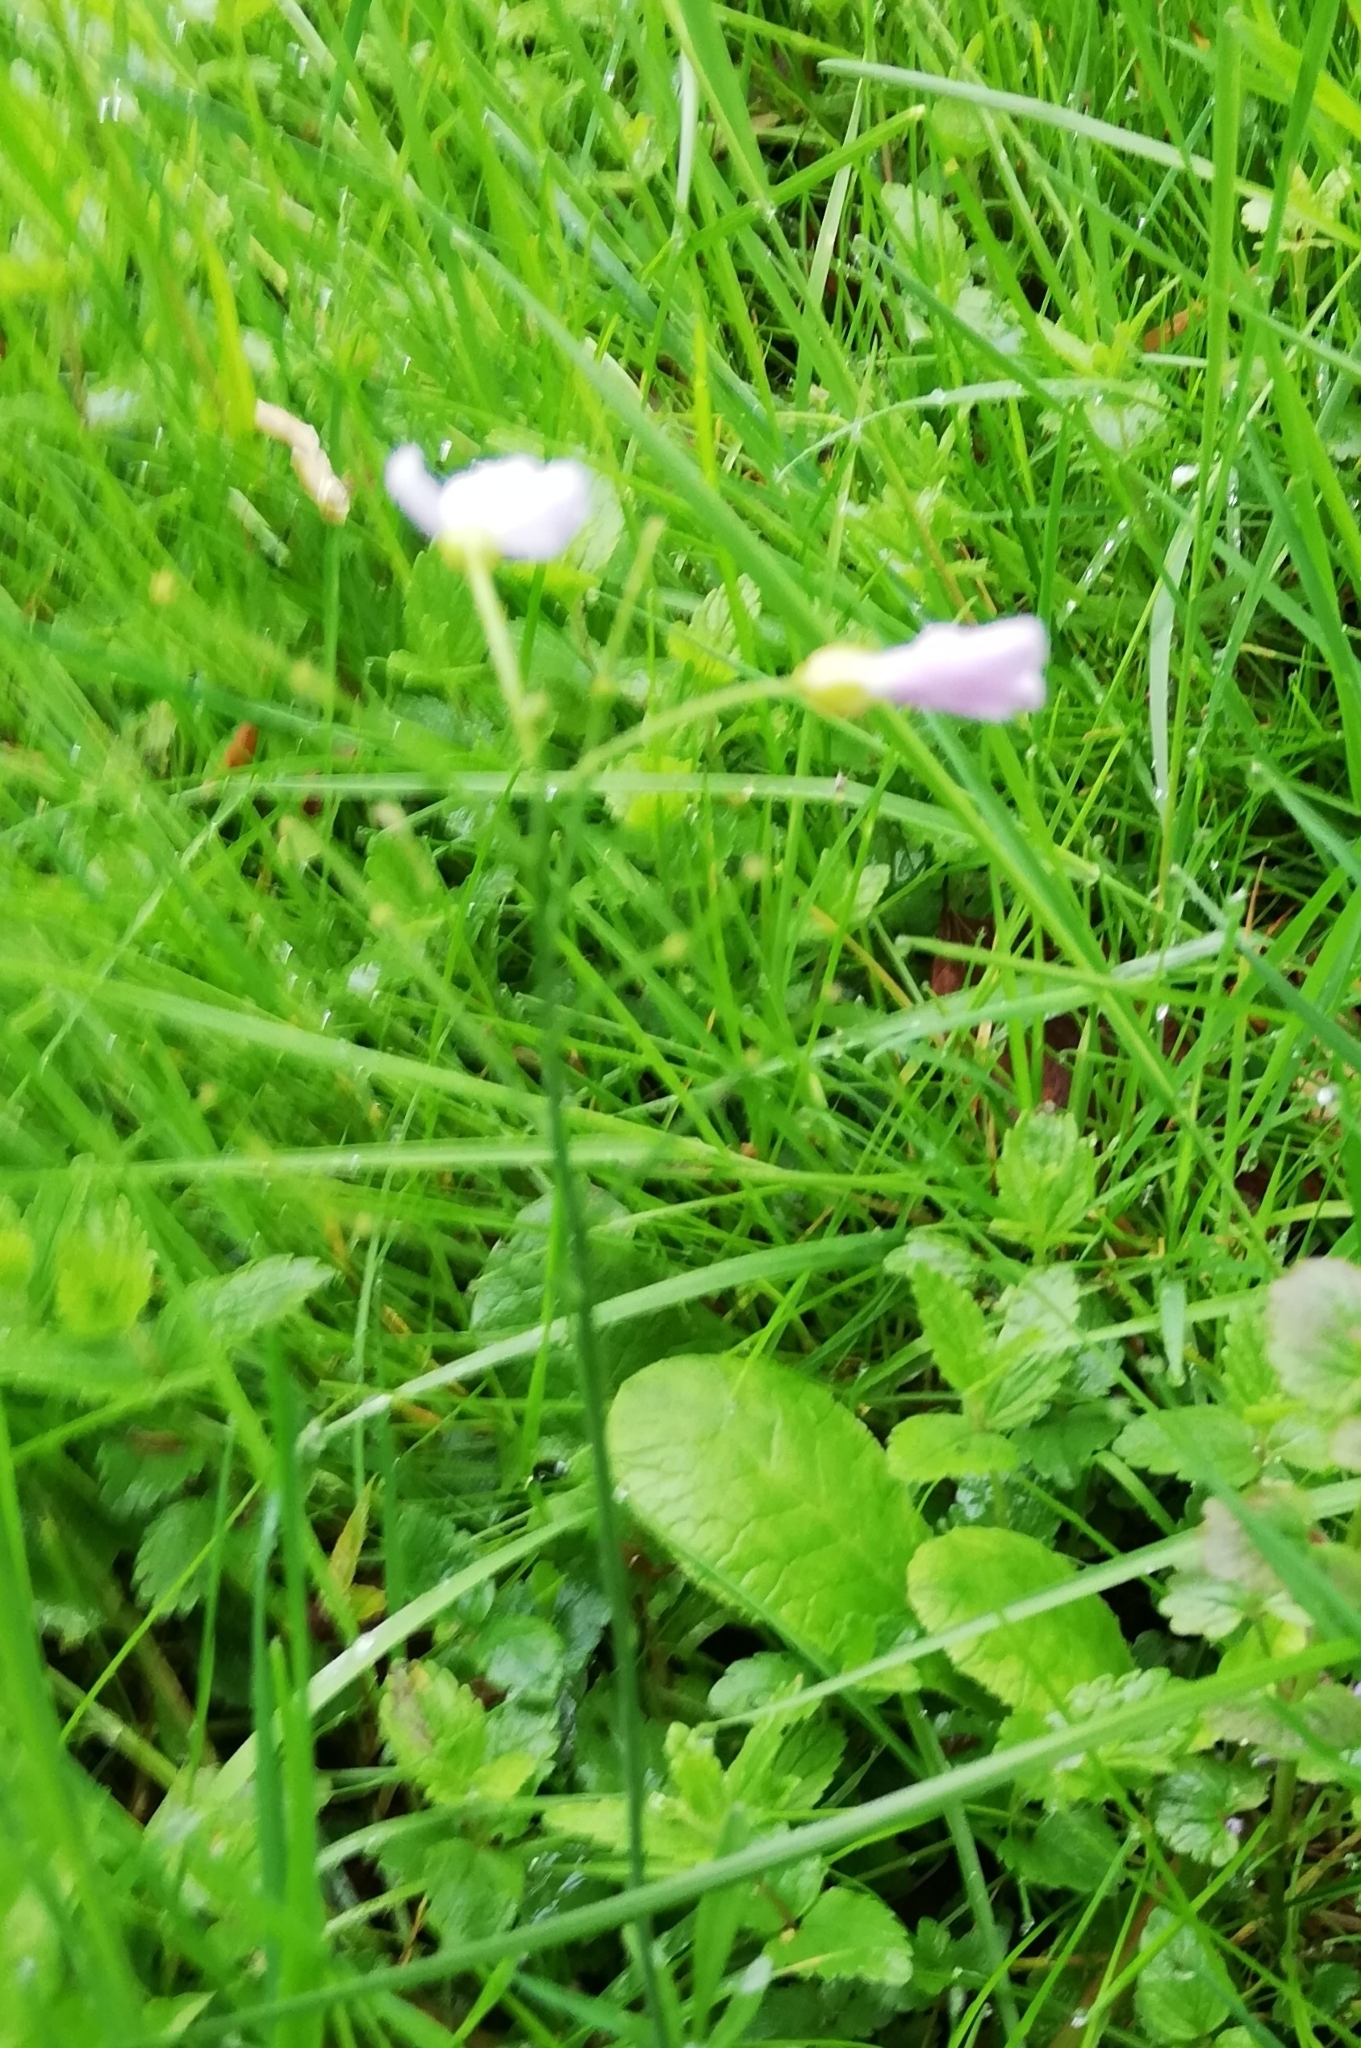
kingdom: Plantae
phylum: Tracheophyta
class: Magnoliopsida
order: Brassicales
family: Brassicaceae
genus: Cardamine
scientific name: Cardamine pratensis
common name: Cuckoo flower
